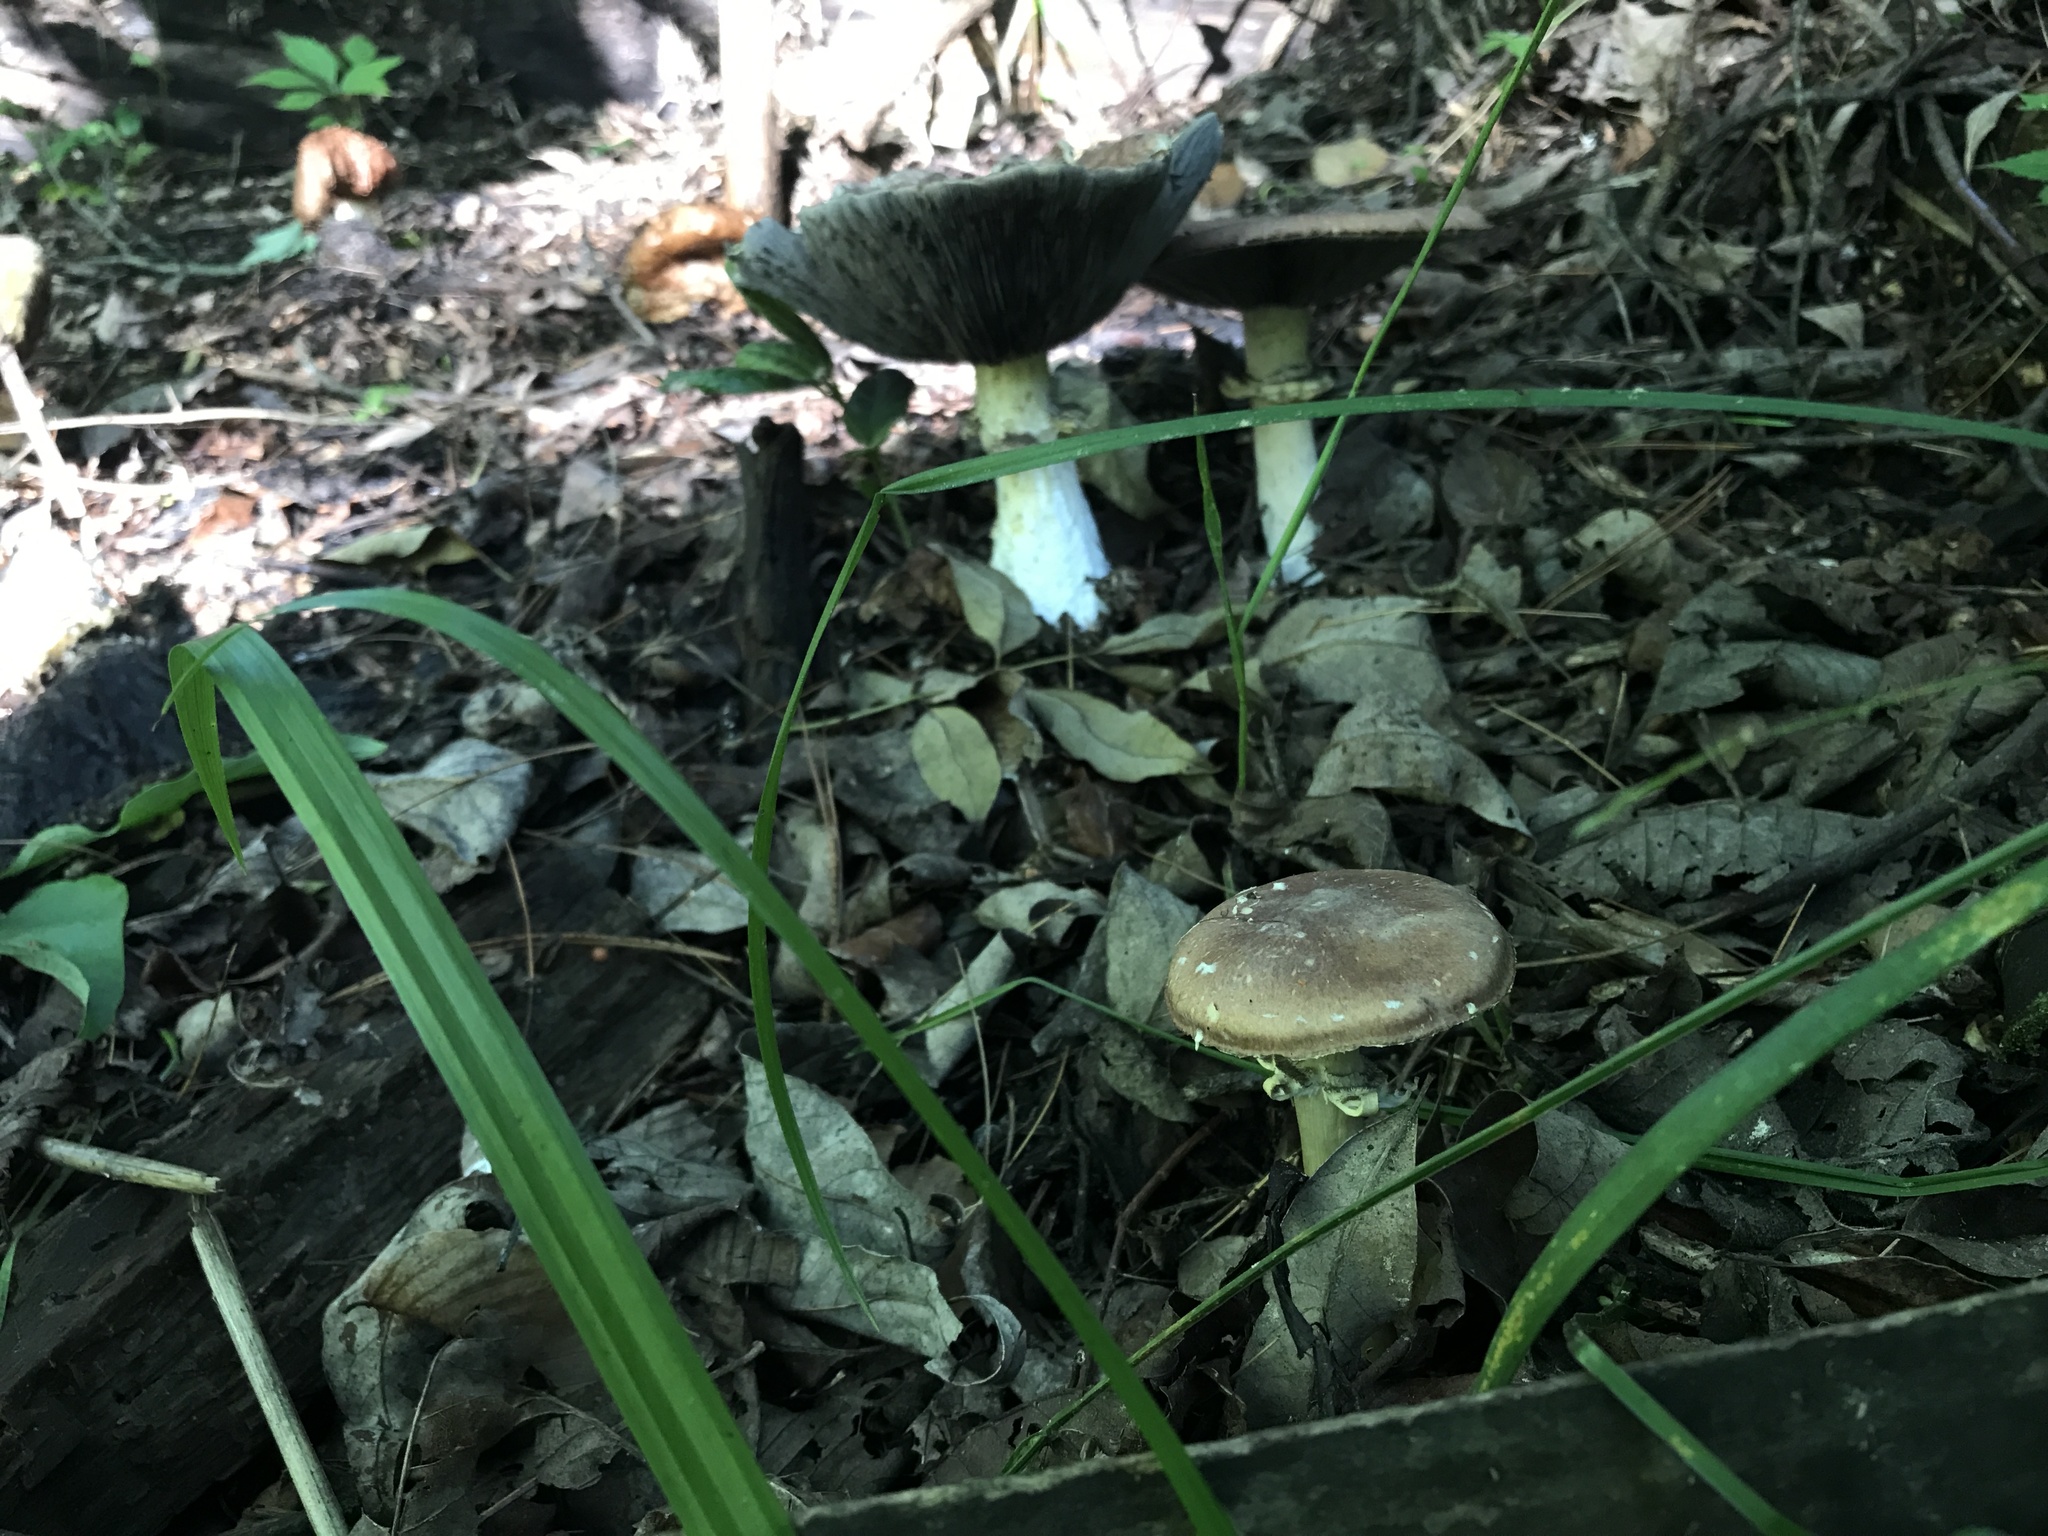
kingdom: Fungi
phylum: Basidiomycota
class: Agaricomycetes
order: Agaricales
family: Strophariaceae
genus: Stropharia
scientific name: Stropharia rugosoannulata
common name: Wine roundhead
